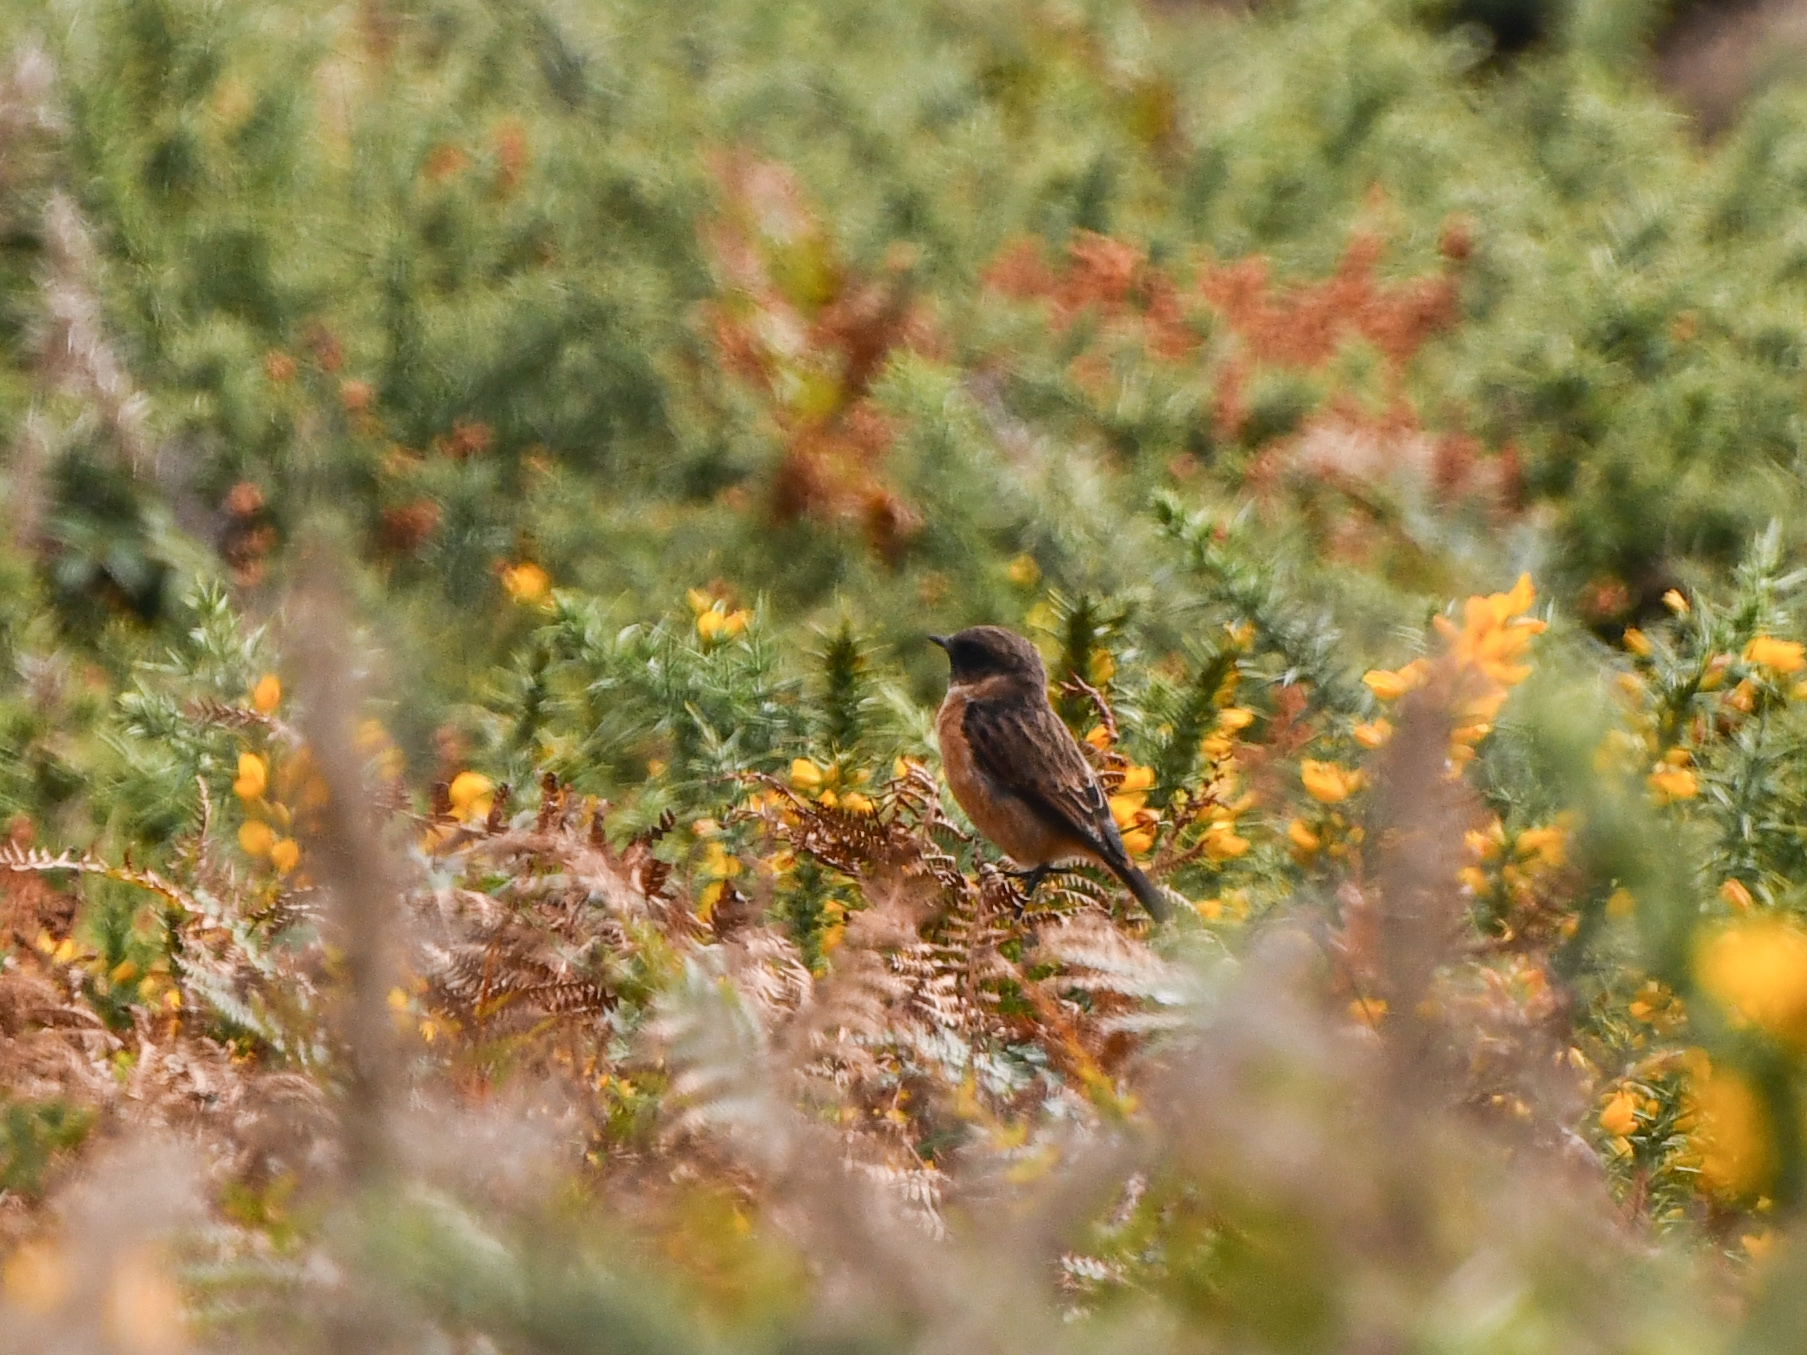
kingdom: Animalia
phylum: Chordata
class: Aves
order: Passeriformes
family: Muscicapidae
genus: Saxicola
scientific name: Saxicola rubicola
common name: European stonechat
